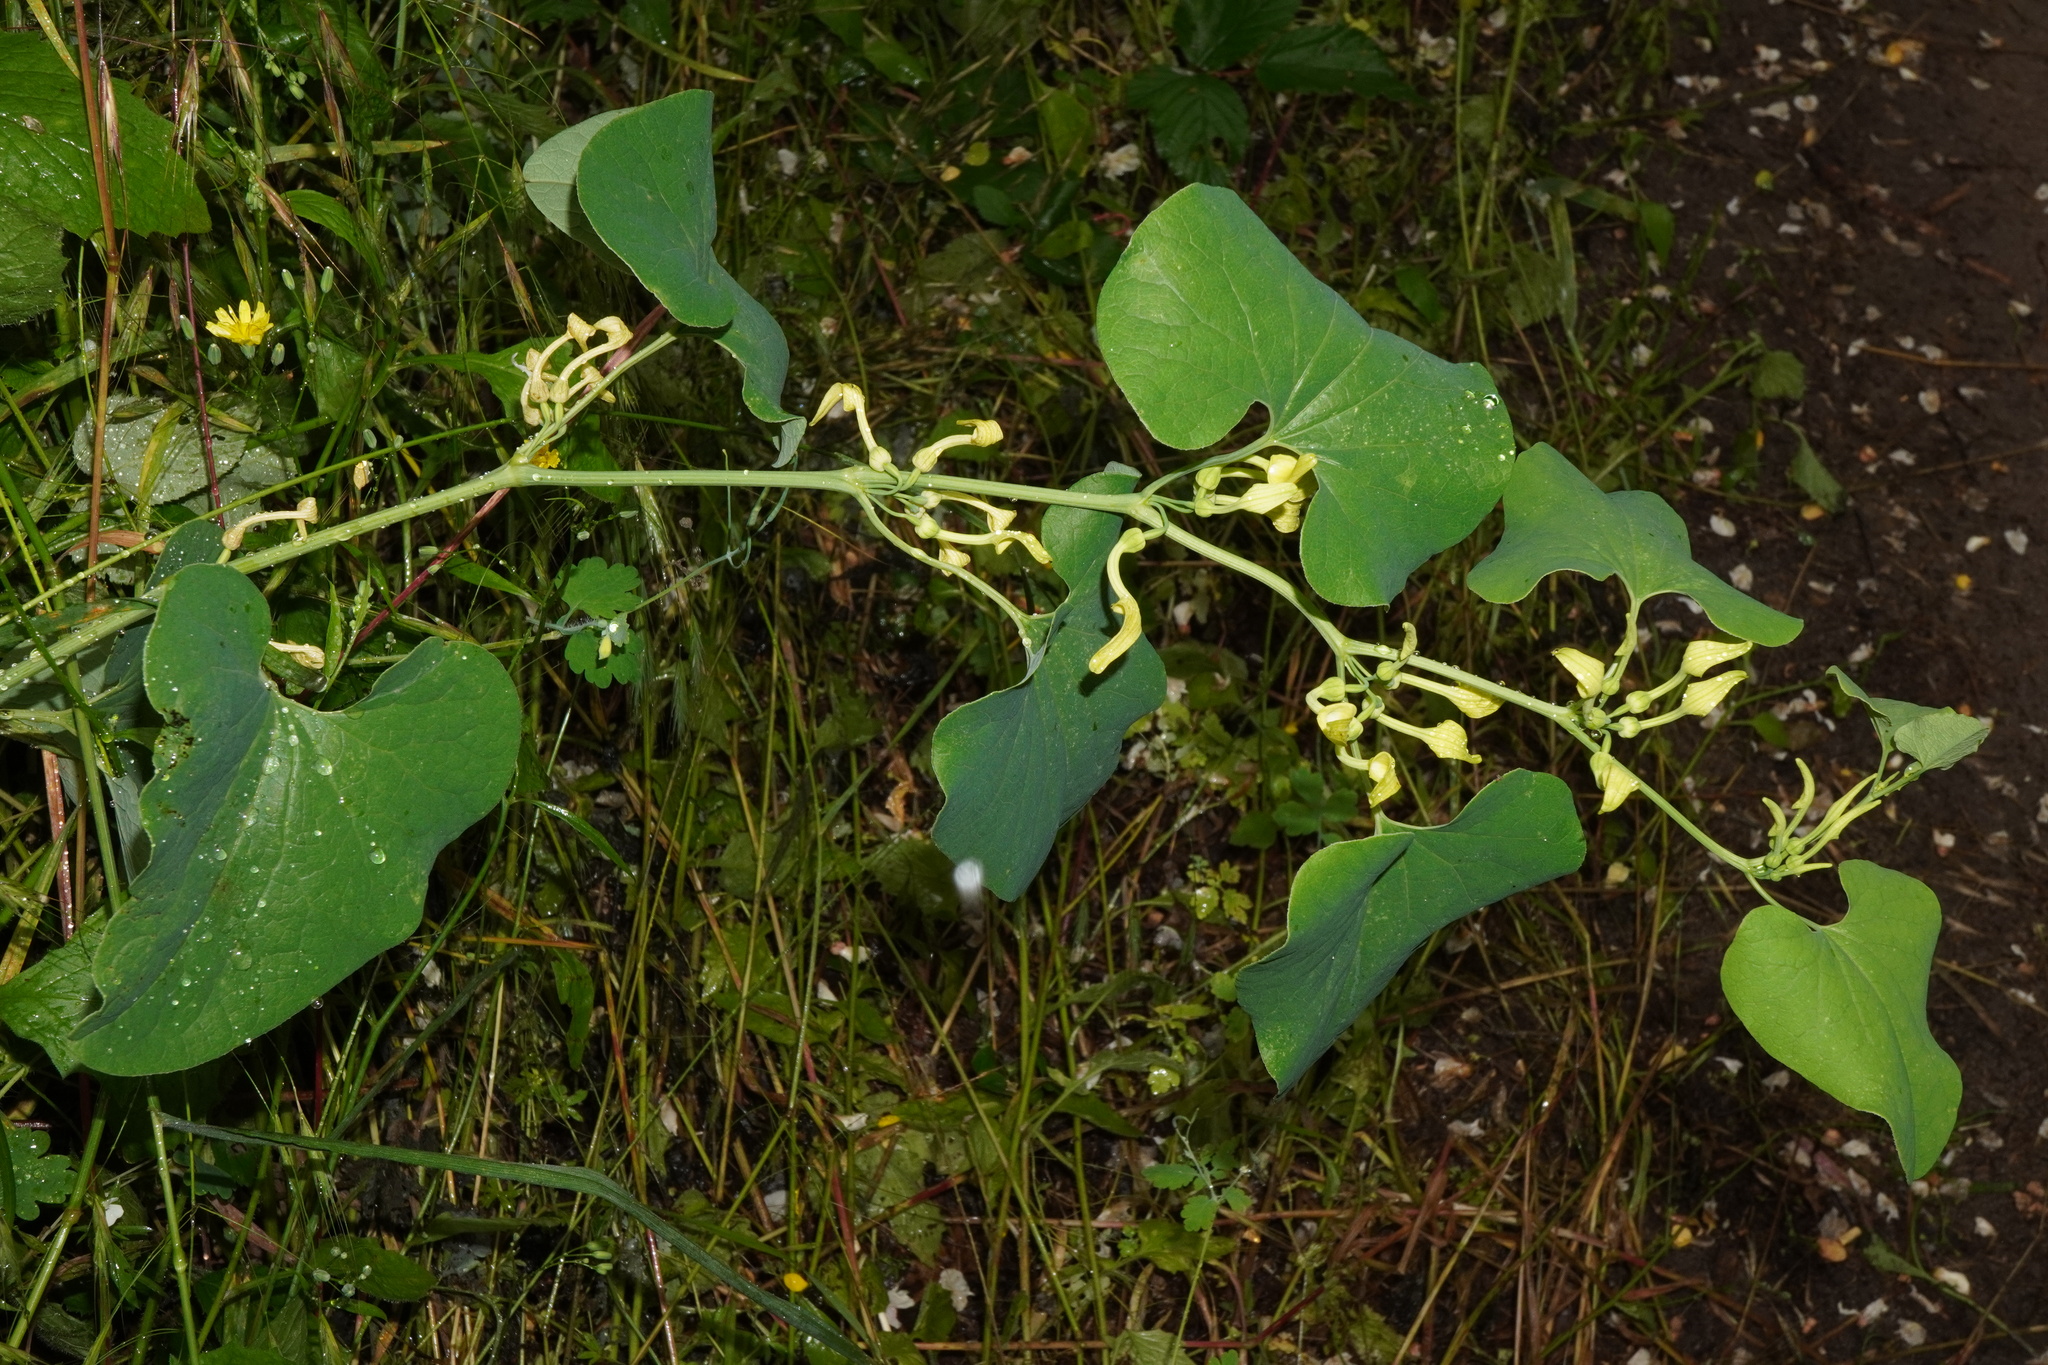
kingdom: Plantae
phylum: Tracheophyta
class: Magnoliopsida
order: Piperales
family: Aristolochiaceae
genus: Aristolochia
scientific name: Aristolochia clematitis
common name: Birthwort
